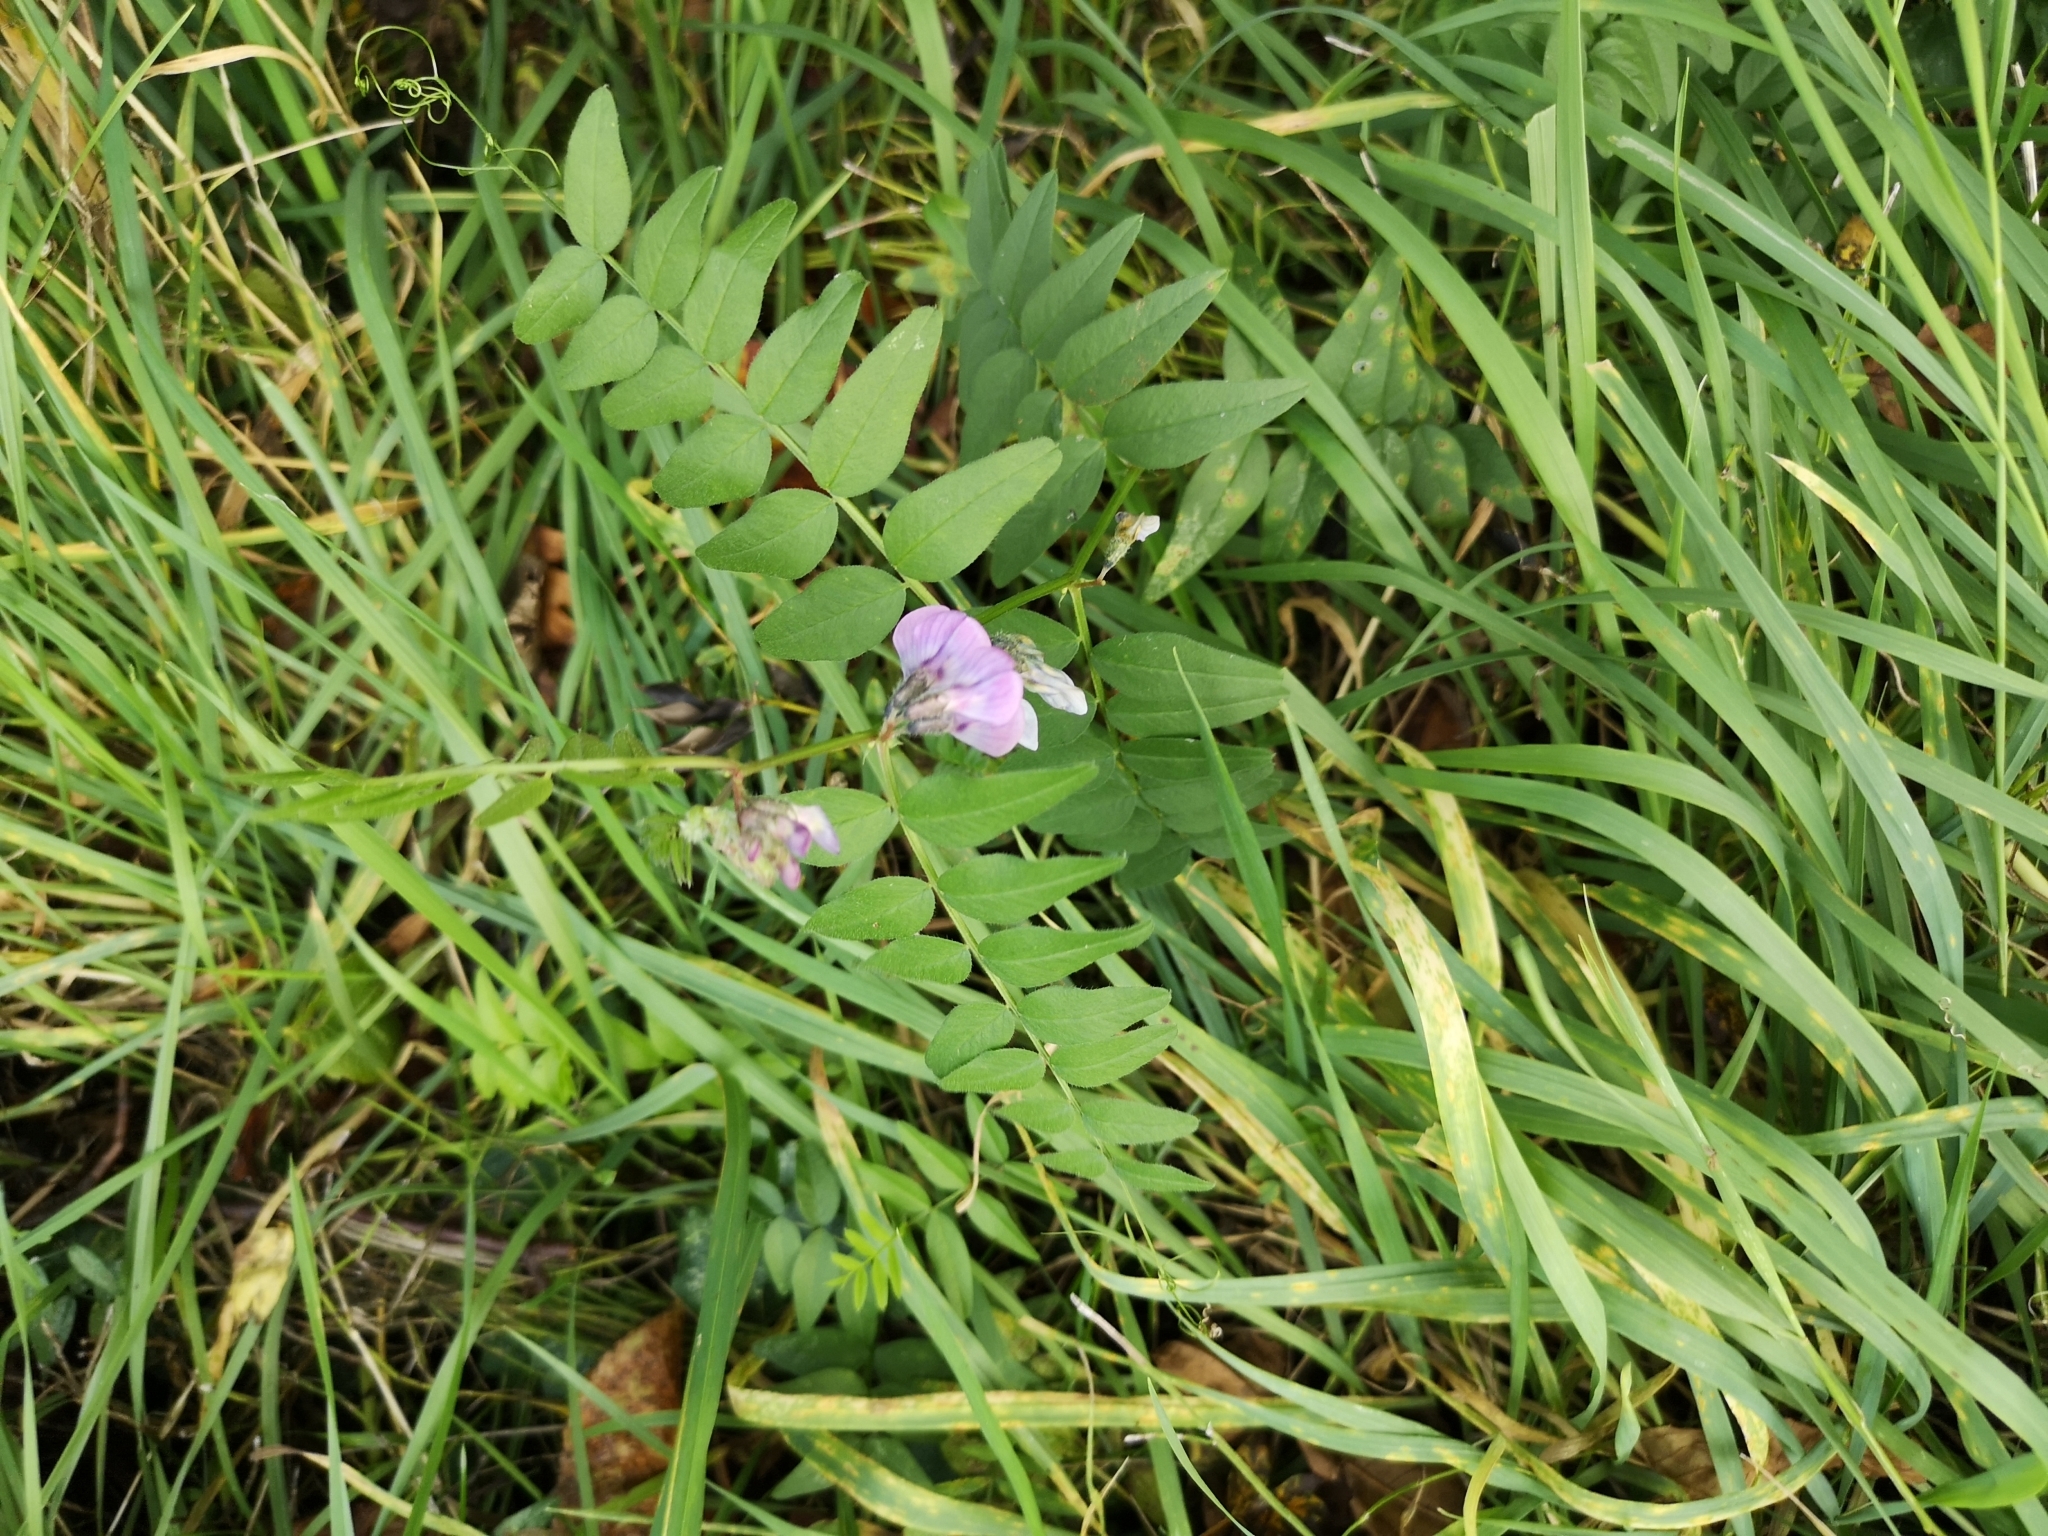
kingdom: Plantae
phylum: Tracheophyta
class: Magnoliopsida
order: Fabales
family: Fabaceae
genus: Vicia
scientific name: Vicia sepium
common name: Bush vetch
